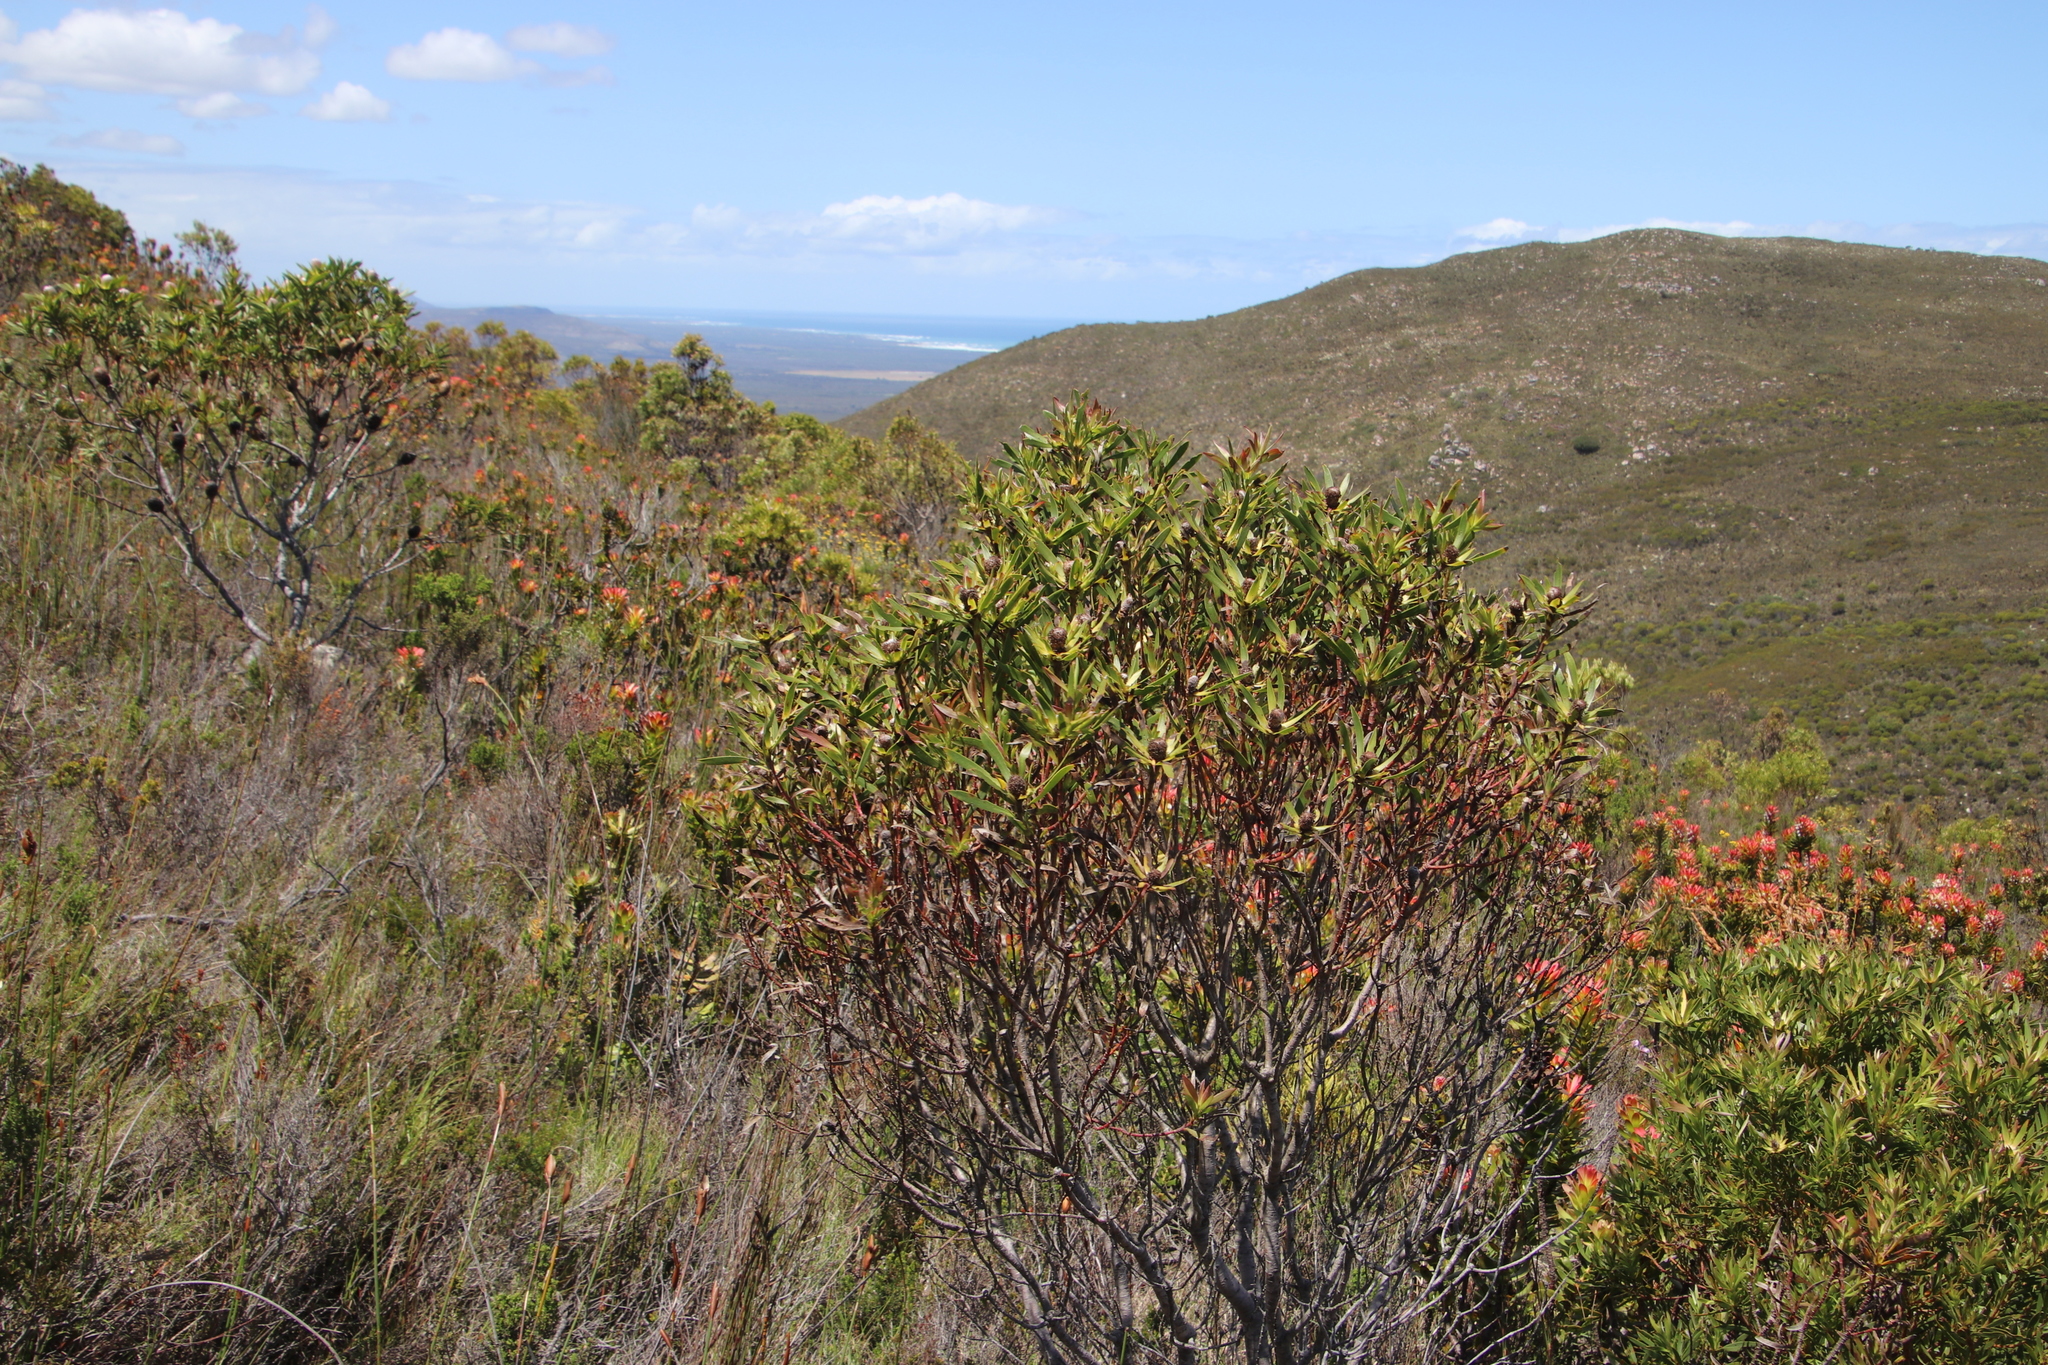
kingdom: Plantae
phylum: Tracheophyta
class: Magnoliopsida
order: Proteales
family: Proteaceae
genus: Leucadendron
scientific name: Leucadendron xanthoconus
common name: Sickle-leaf conebush
